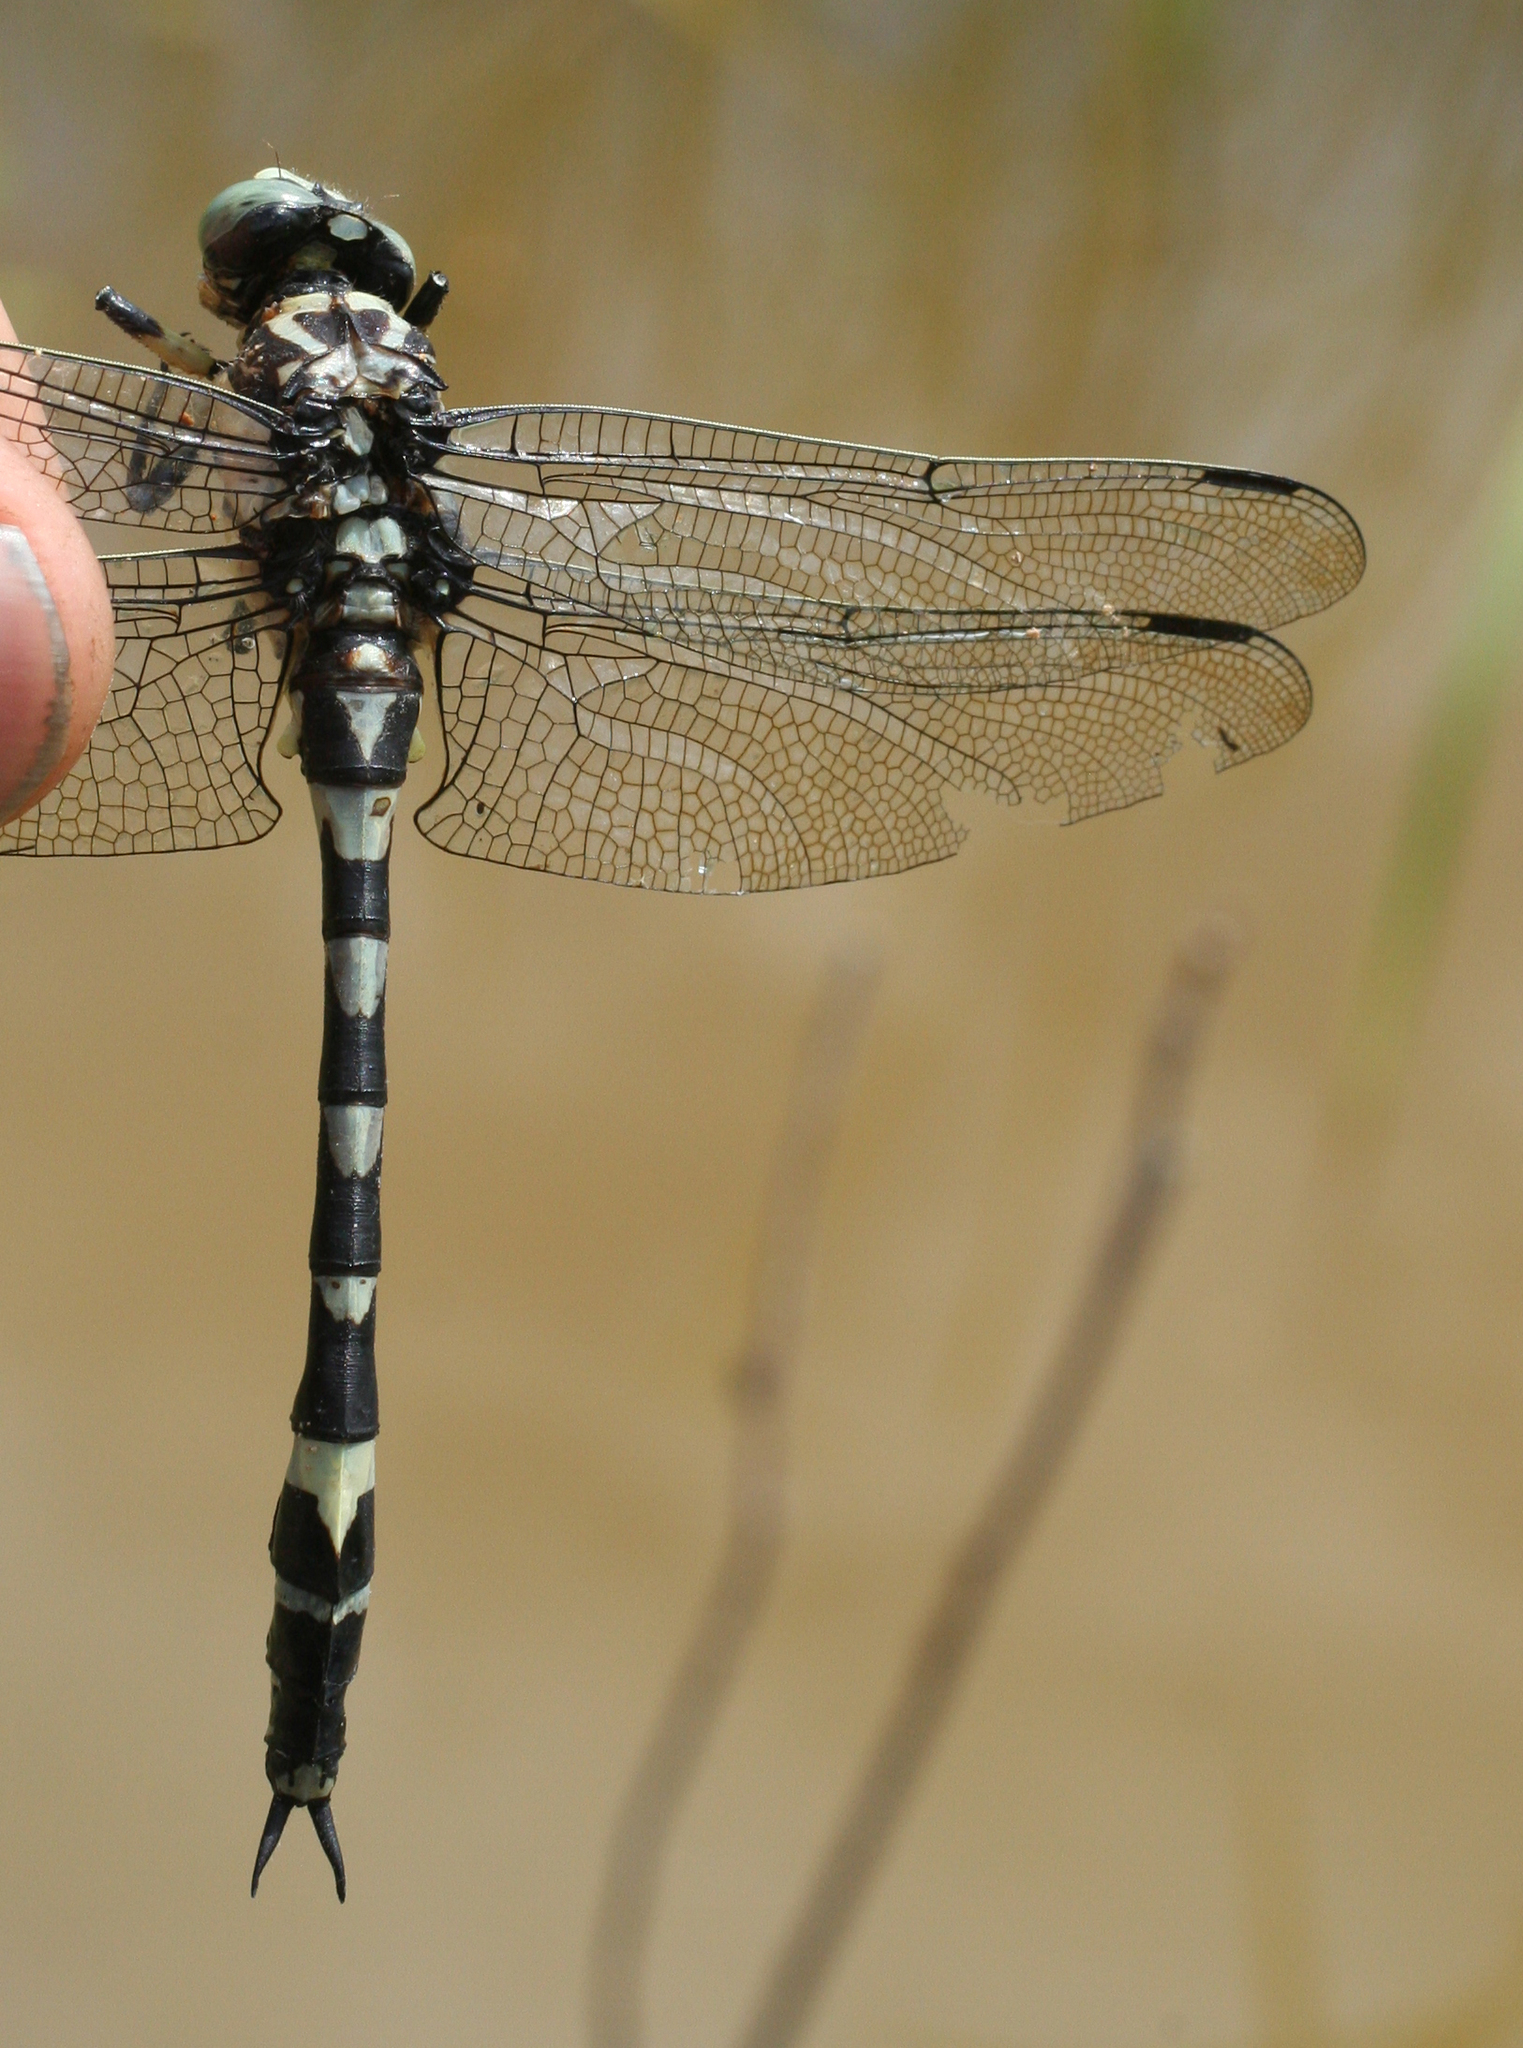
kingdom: Animalia
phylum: Arthropoda
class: Insecta
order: Odonata
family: Gomphidae
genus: Gomphidia
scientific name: Gomphidia confluens
